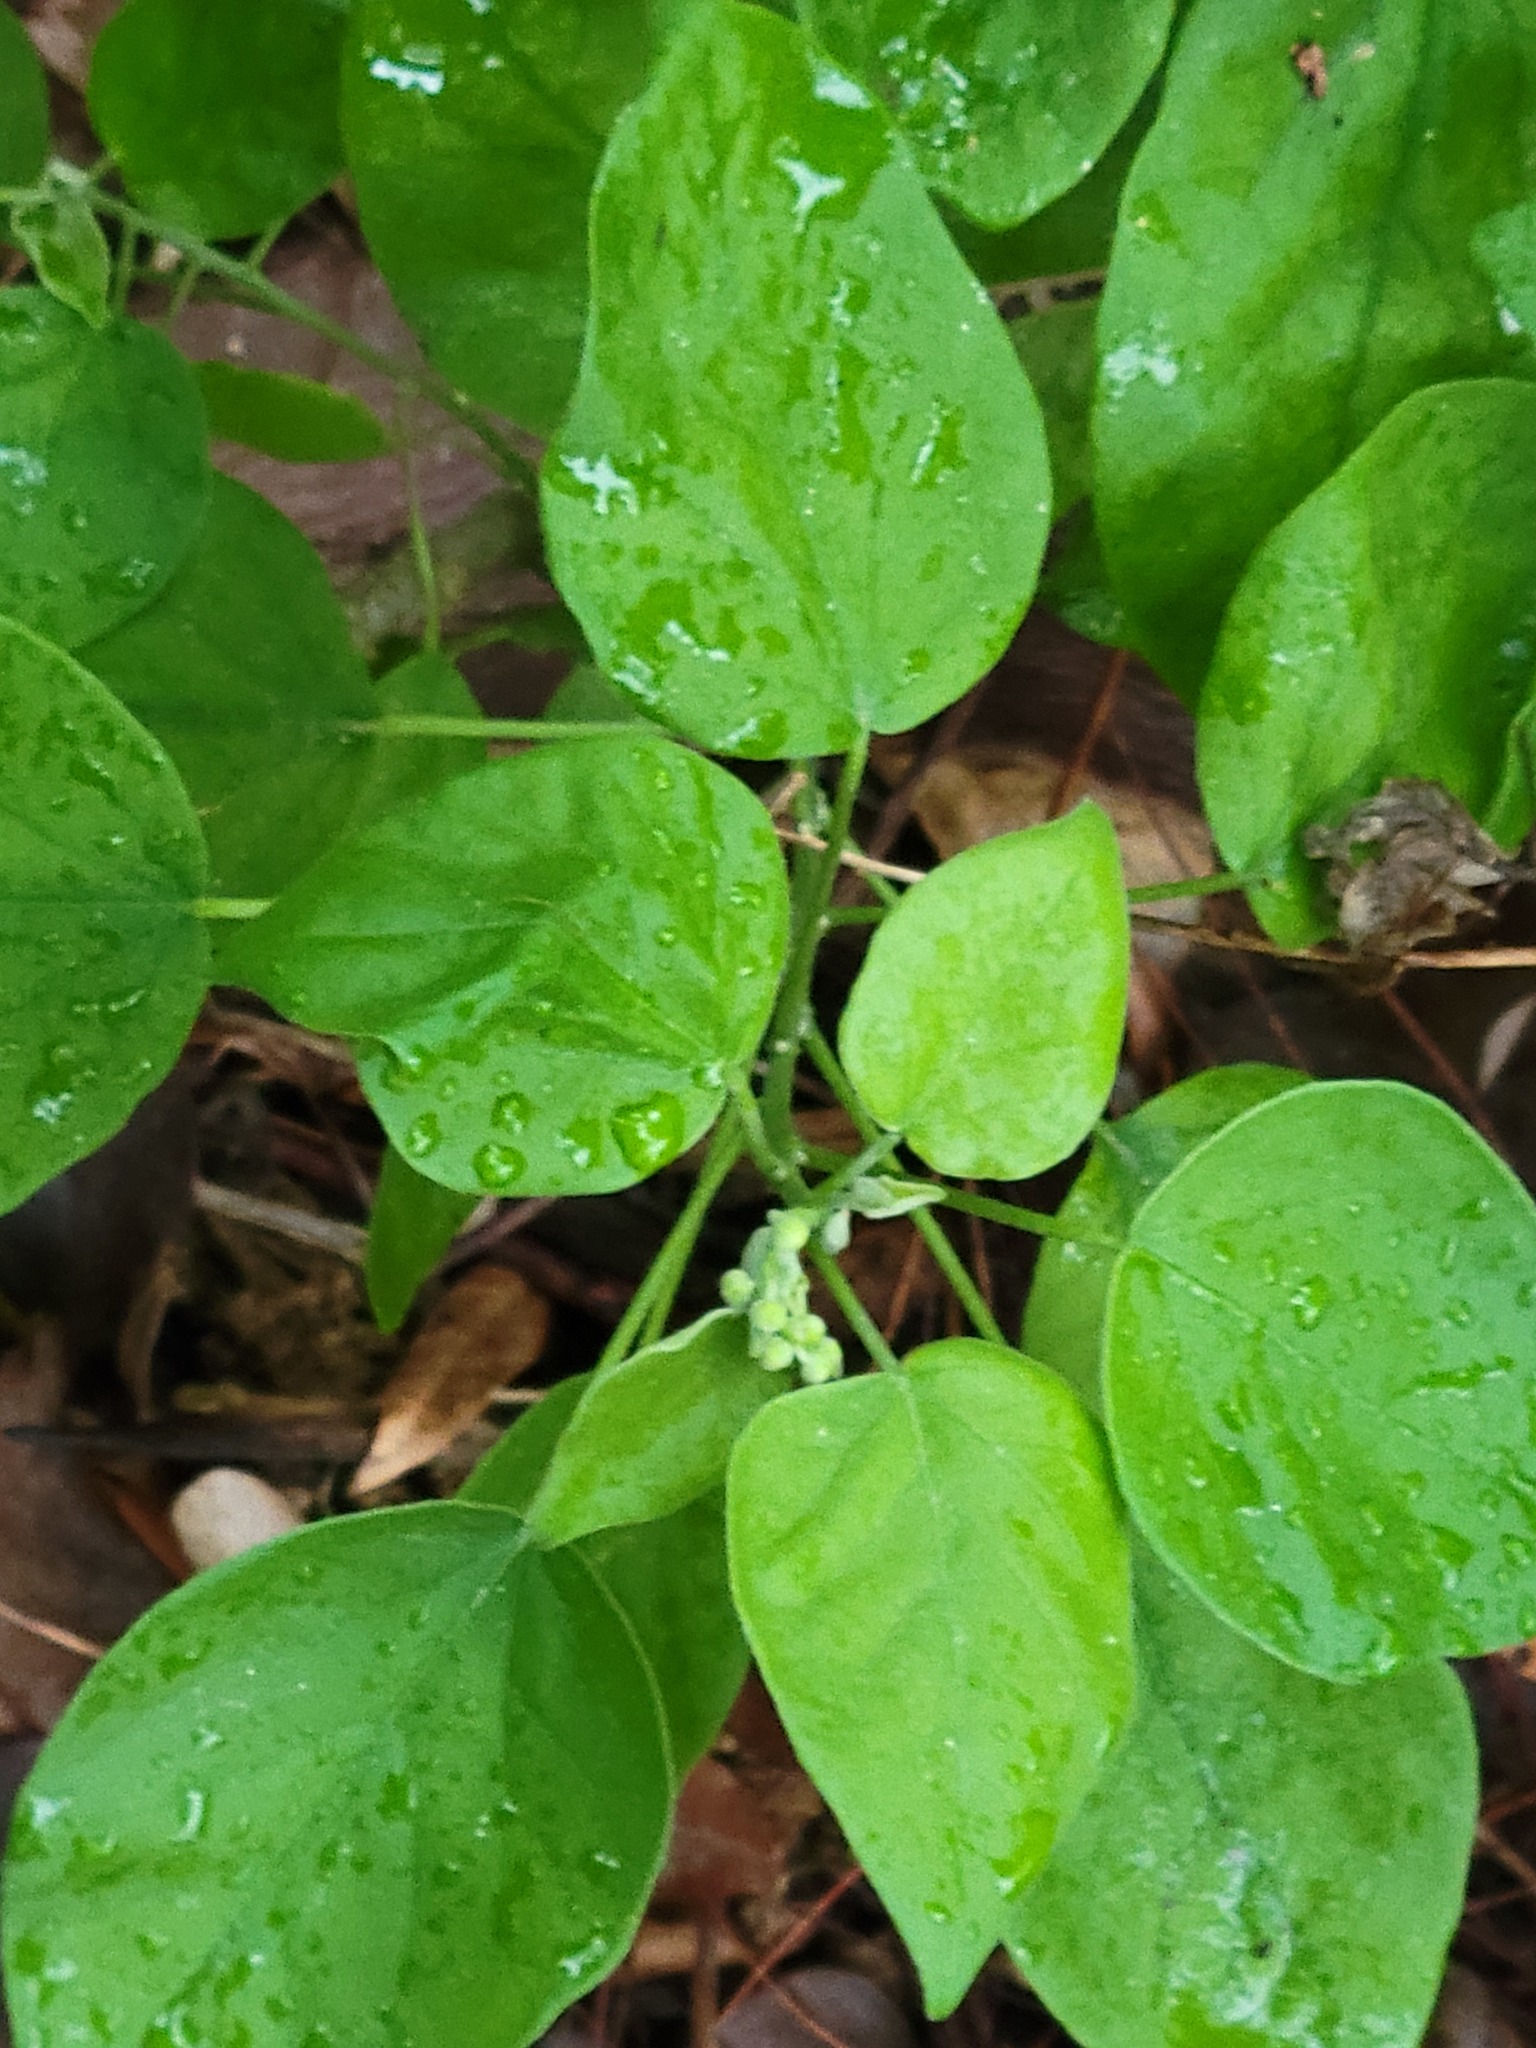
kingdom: Plantae
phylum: Tracheophyta
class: Magnoliopsida
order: Malpighiales
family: Euphorbiaceae
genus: Croton
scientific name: Croton humilis
